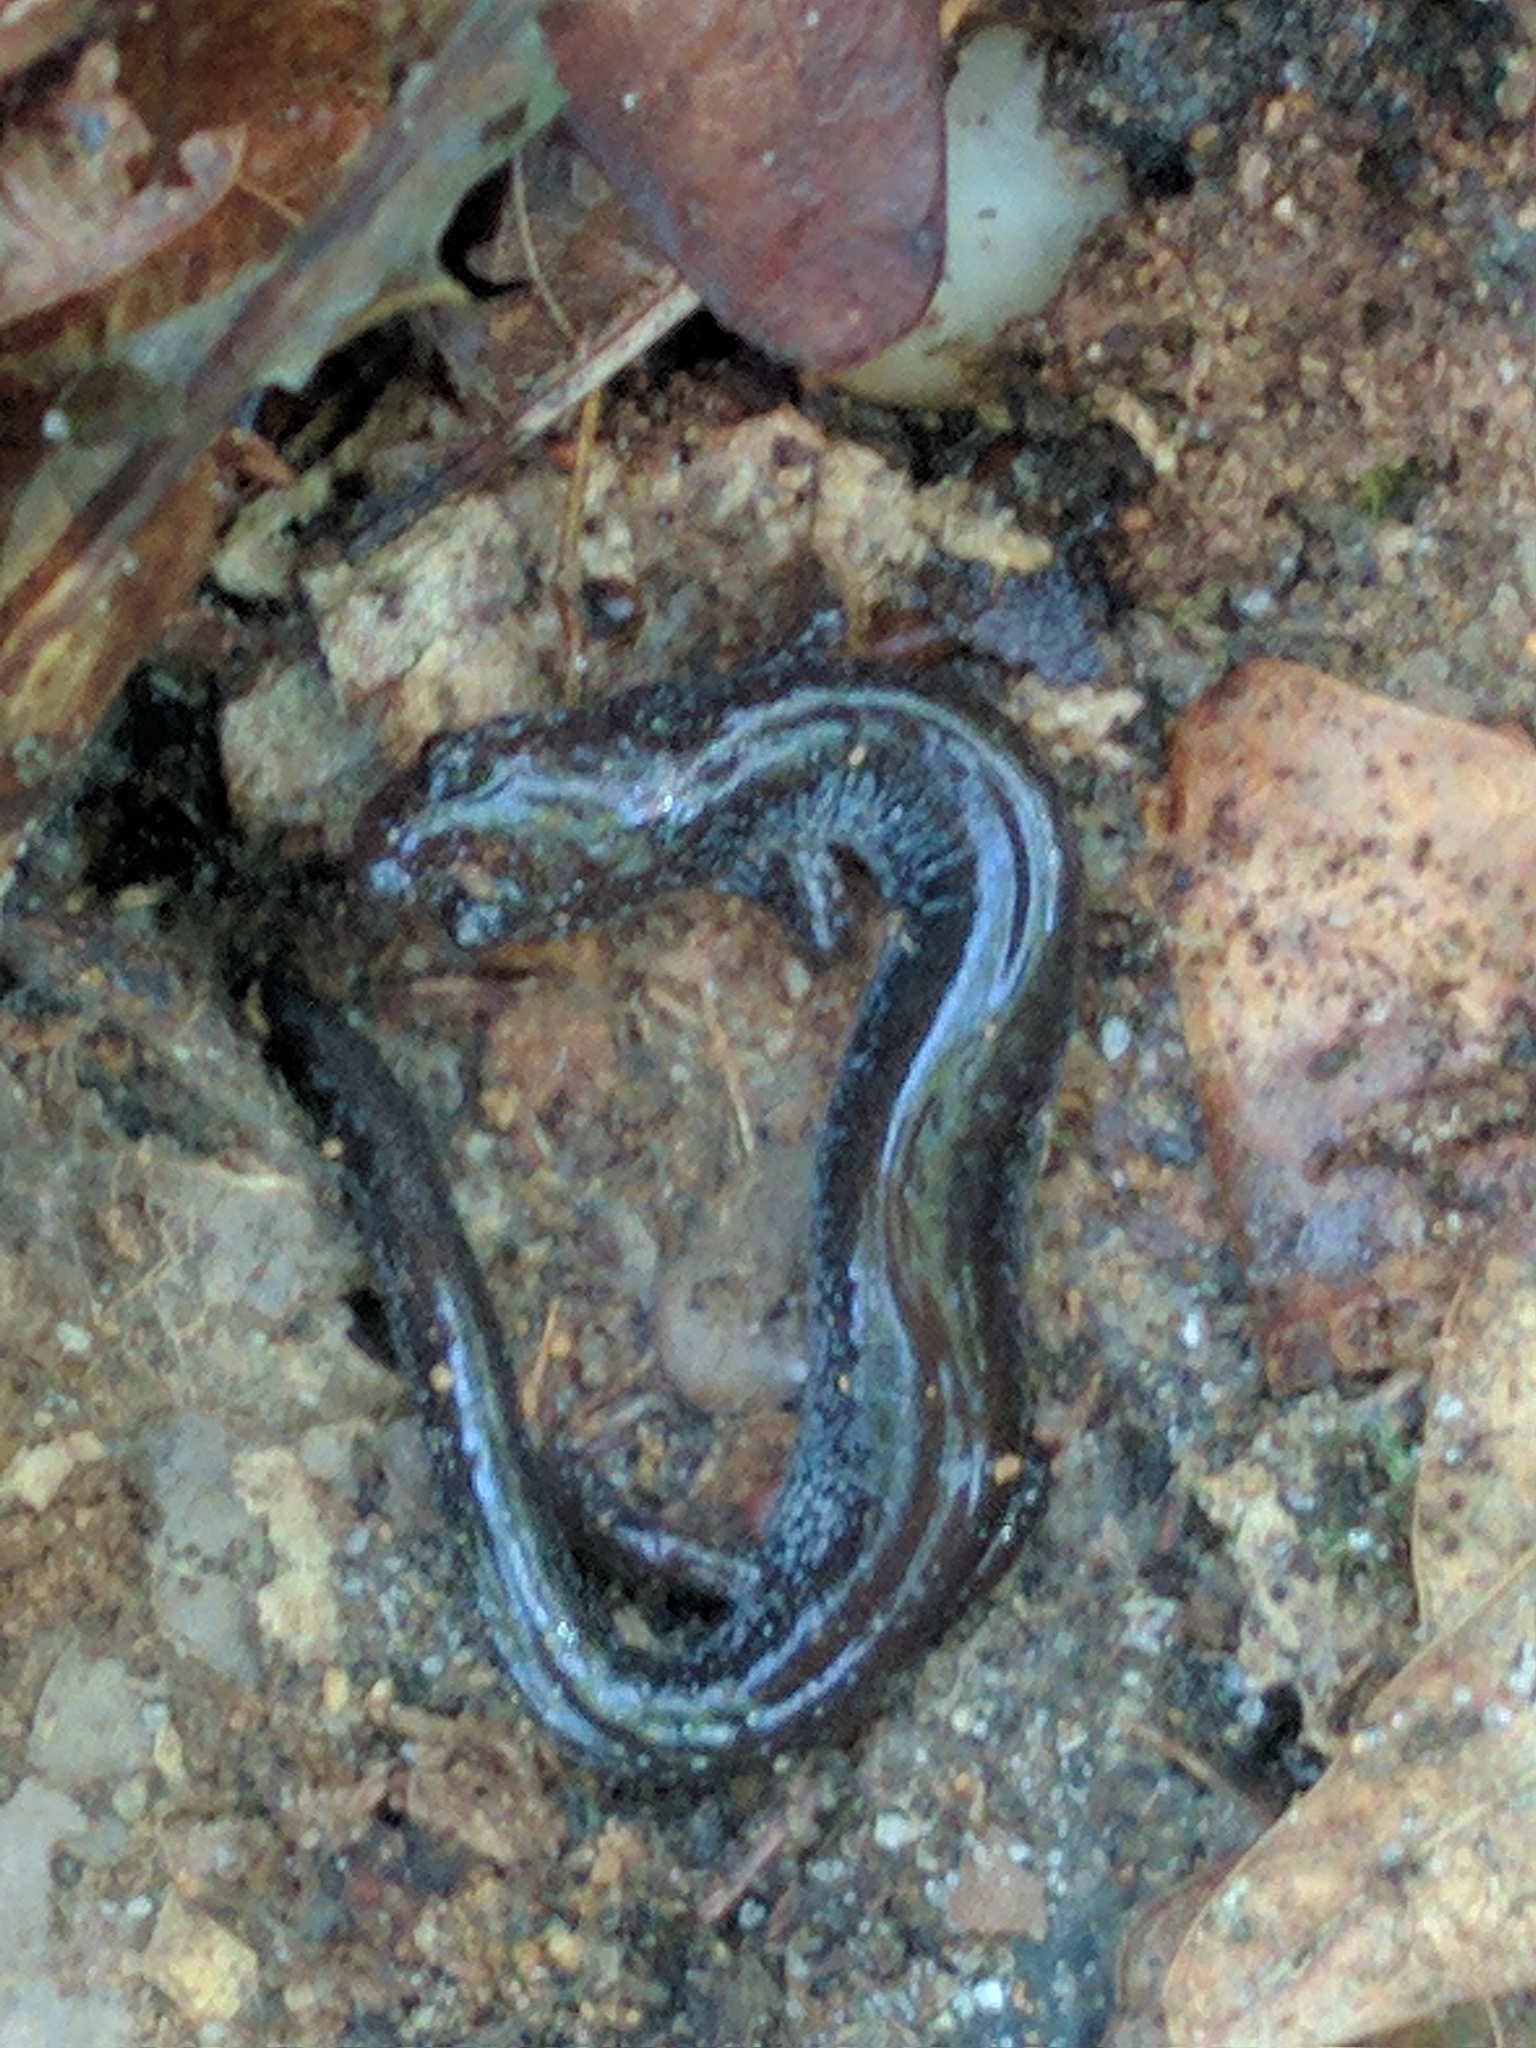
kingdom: Animalia
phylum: Chordata
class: Amphibia
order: Caudata
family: Plethodontidae
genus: Plethodon
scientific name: Plethodon cinereus
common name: Redback salamander
